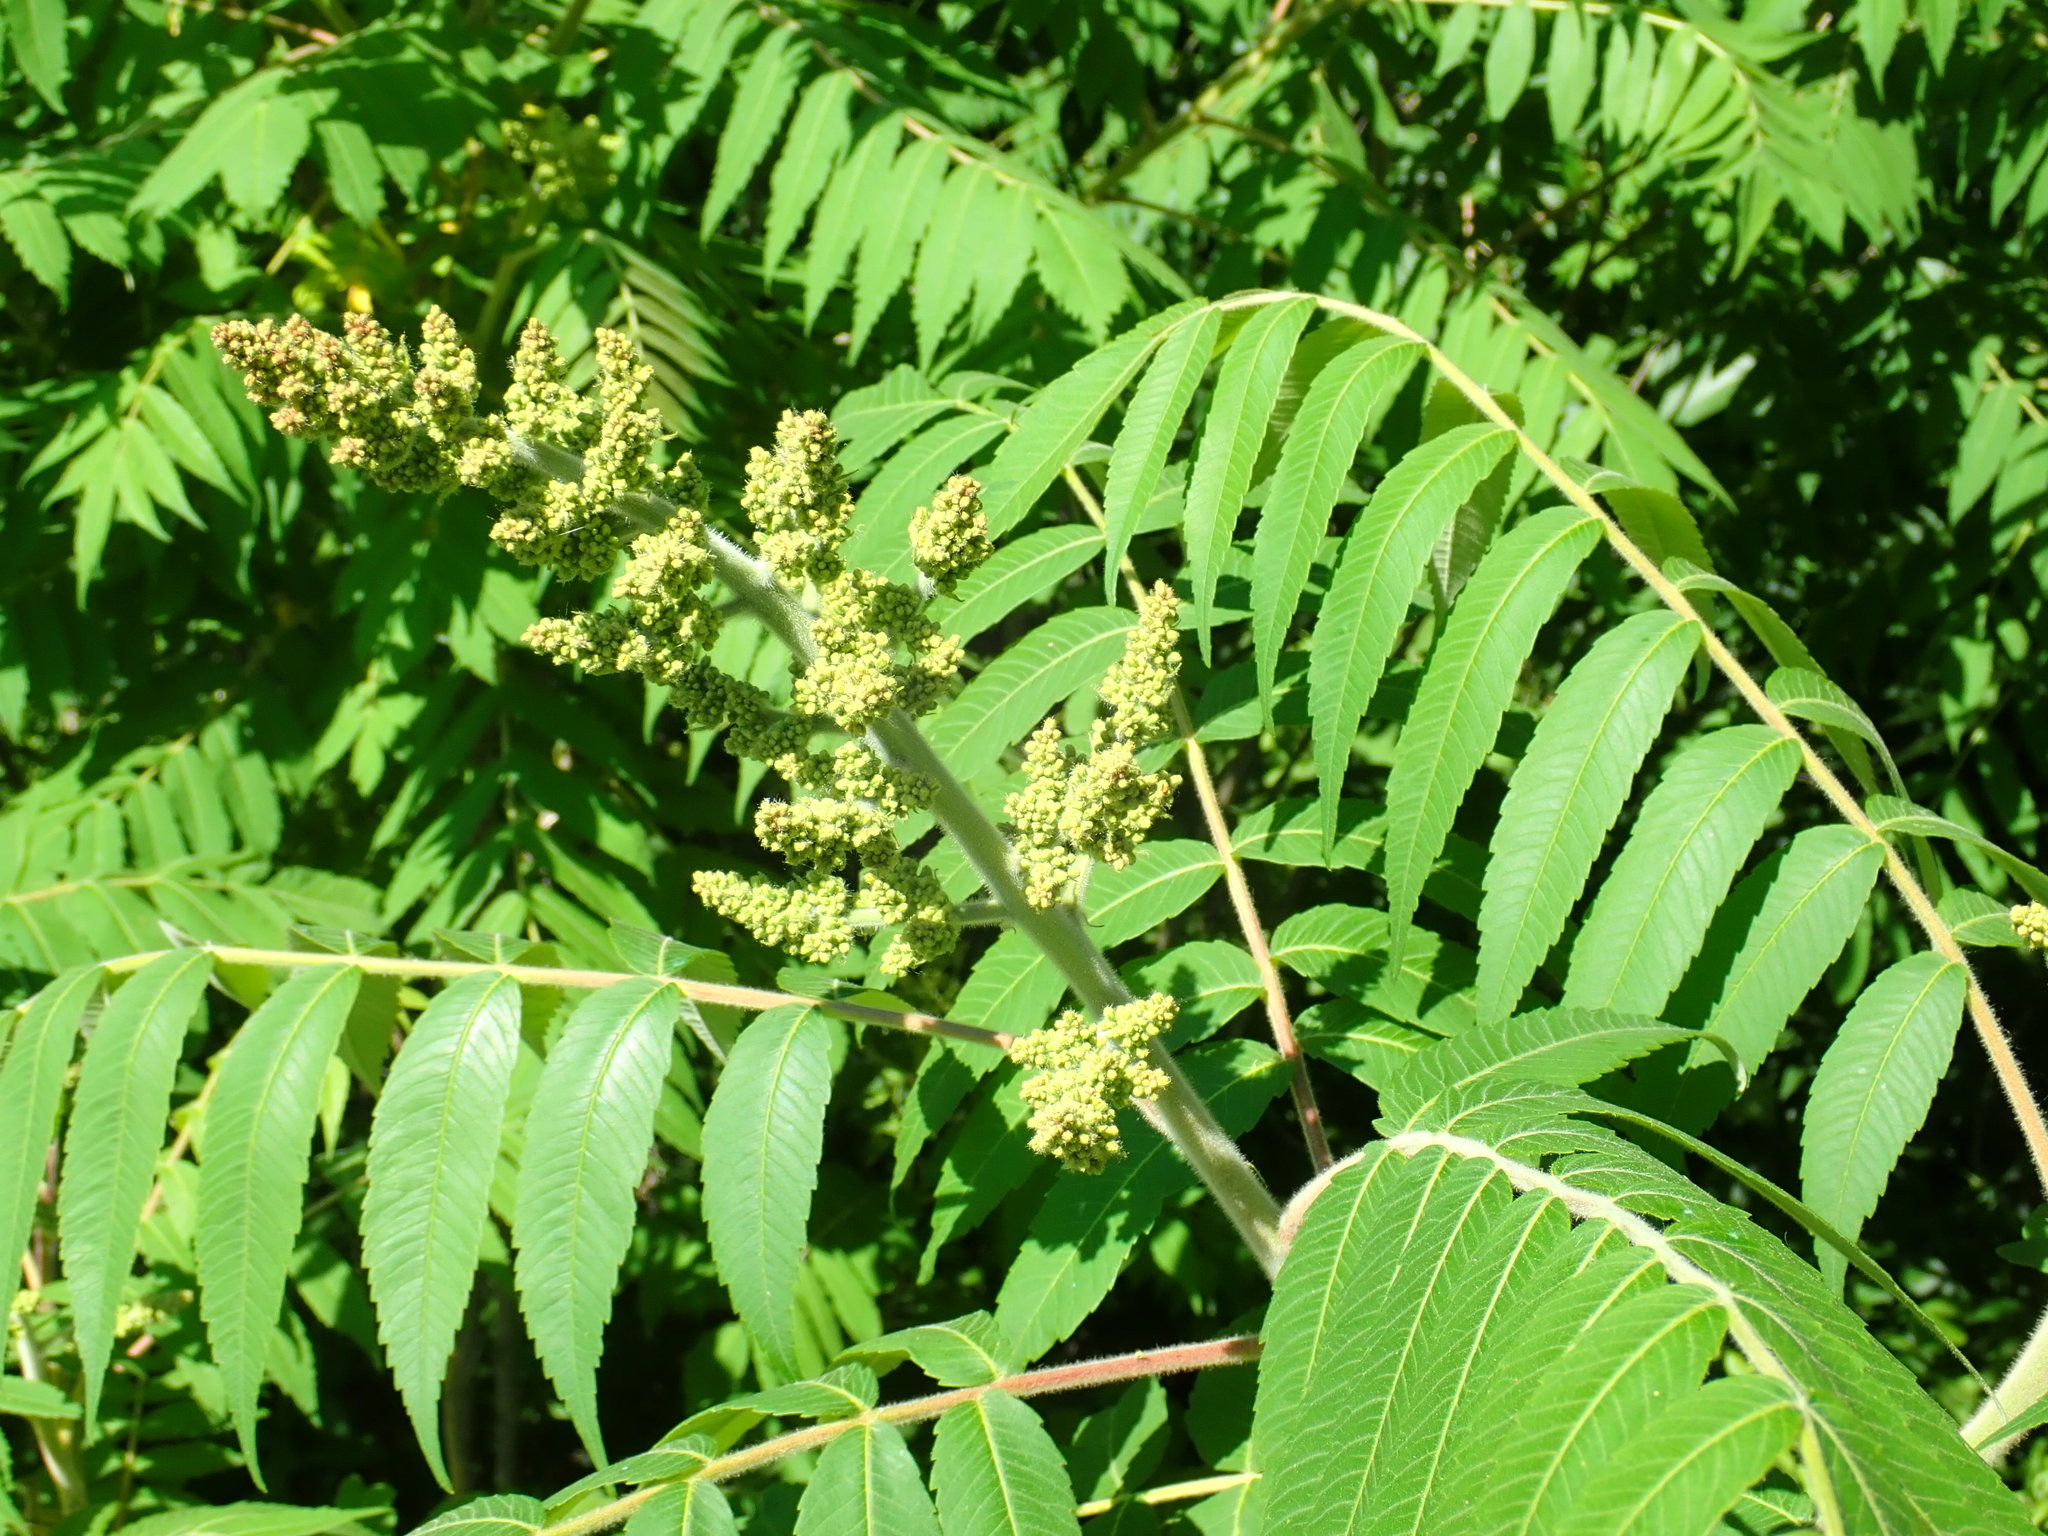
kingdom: Plantae
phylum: Tracheophyta
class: Magnoliopsida
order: Sapindales
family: Anacardiaceae
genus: Rhus
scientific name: Rhus typhina
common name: Staghorn sumac
